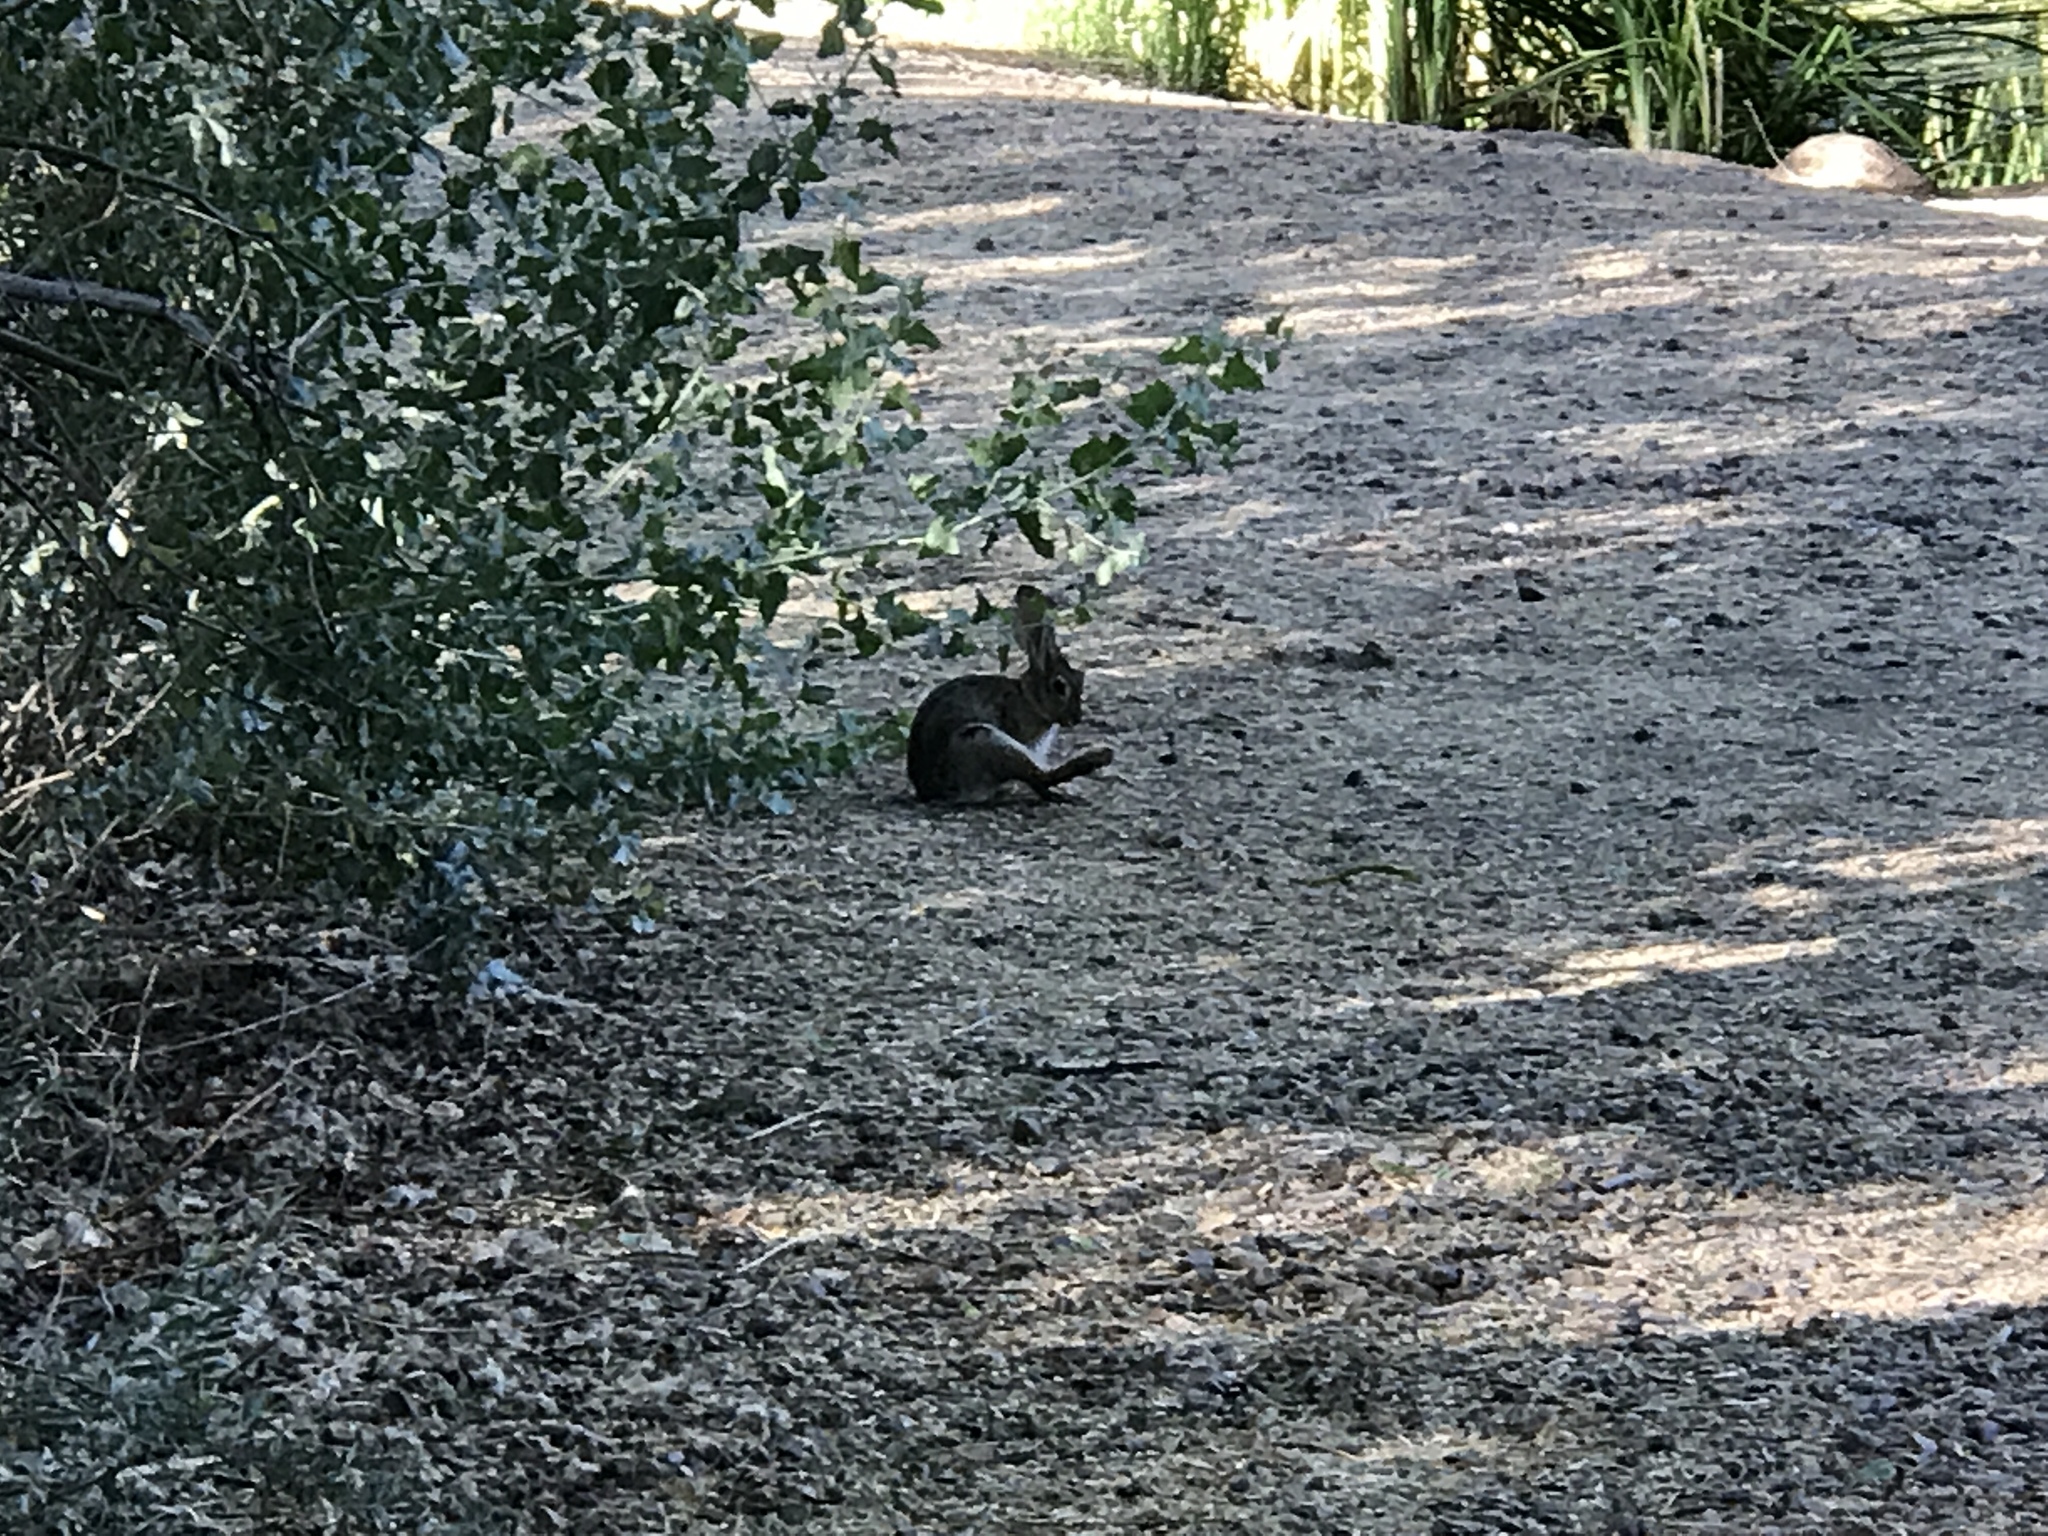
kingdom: Animalia
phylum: Chordata
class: Mammalia
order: Lagomorpha
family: Leporidae
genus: Sylvilagus
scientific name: Sylvilagus audubonii
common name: Desert cottontail
